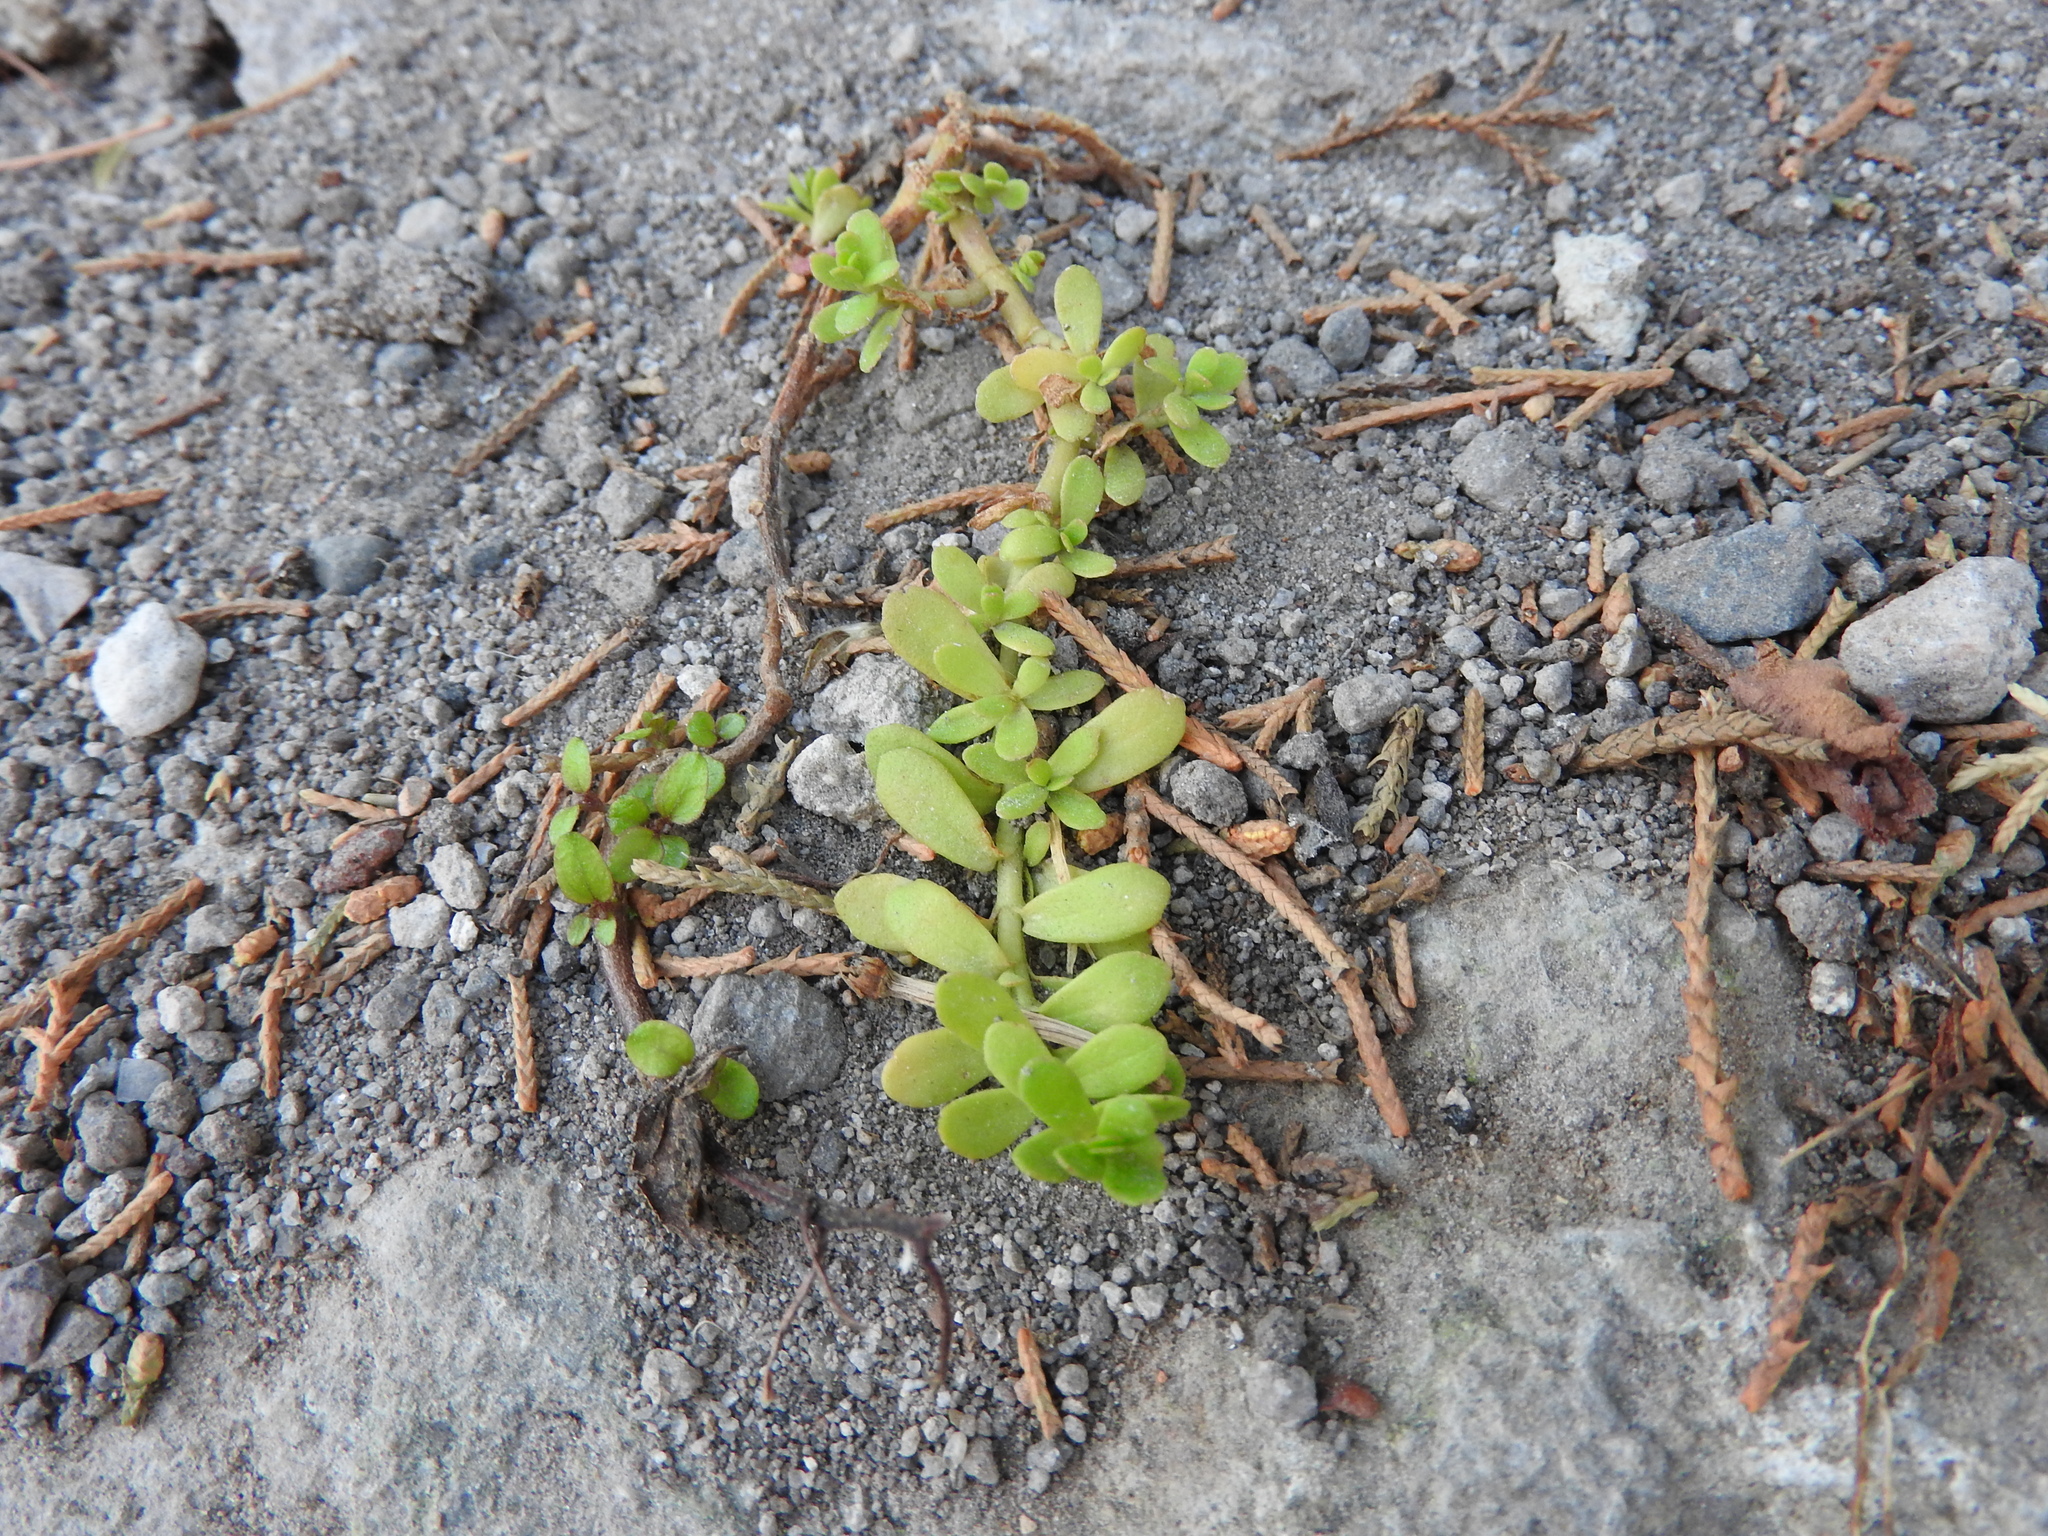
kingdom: Plantae
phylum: Tracheophyta
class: Magnoliopsida
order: Lamiales
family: Plantaginaceae
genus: Bacopa
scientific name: Bacopa monnieri
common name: Indian-pennywort
